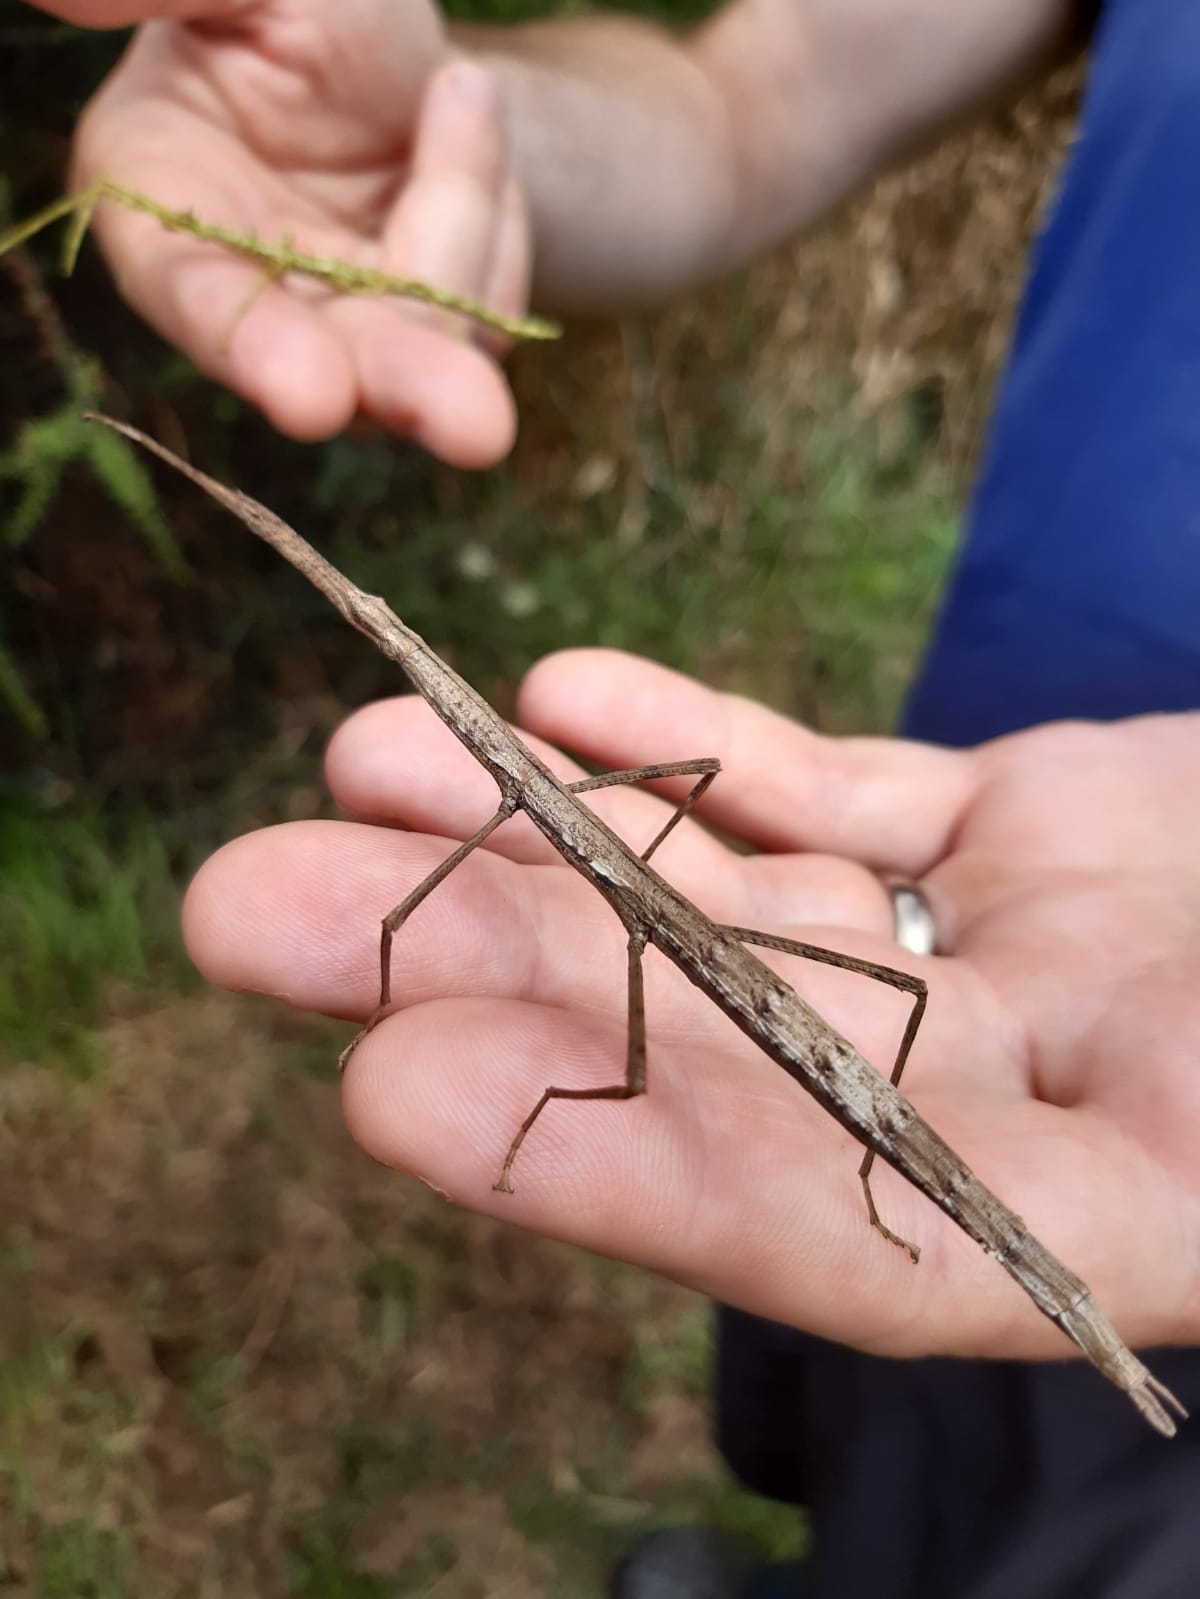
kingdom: Animalia
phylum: Arthropoda
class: Insecta
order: Phasmida
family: Phasmatidae
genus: Clitarchus
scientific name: Clitarchus hookeri
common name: Smooth stick insect
